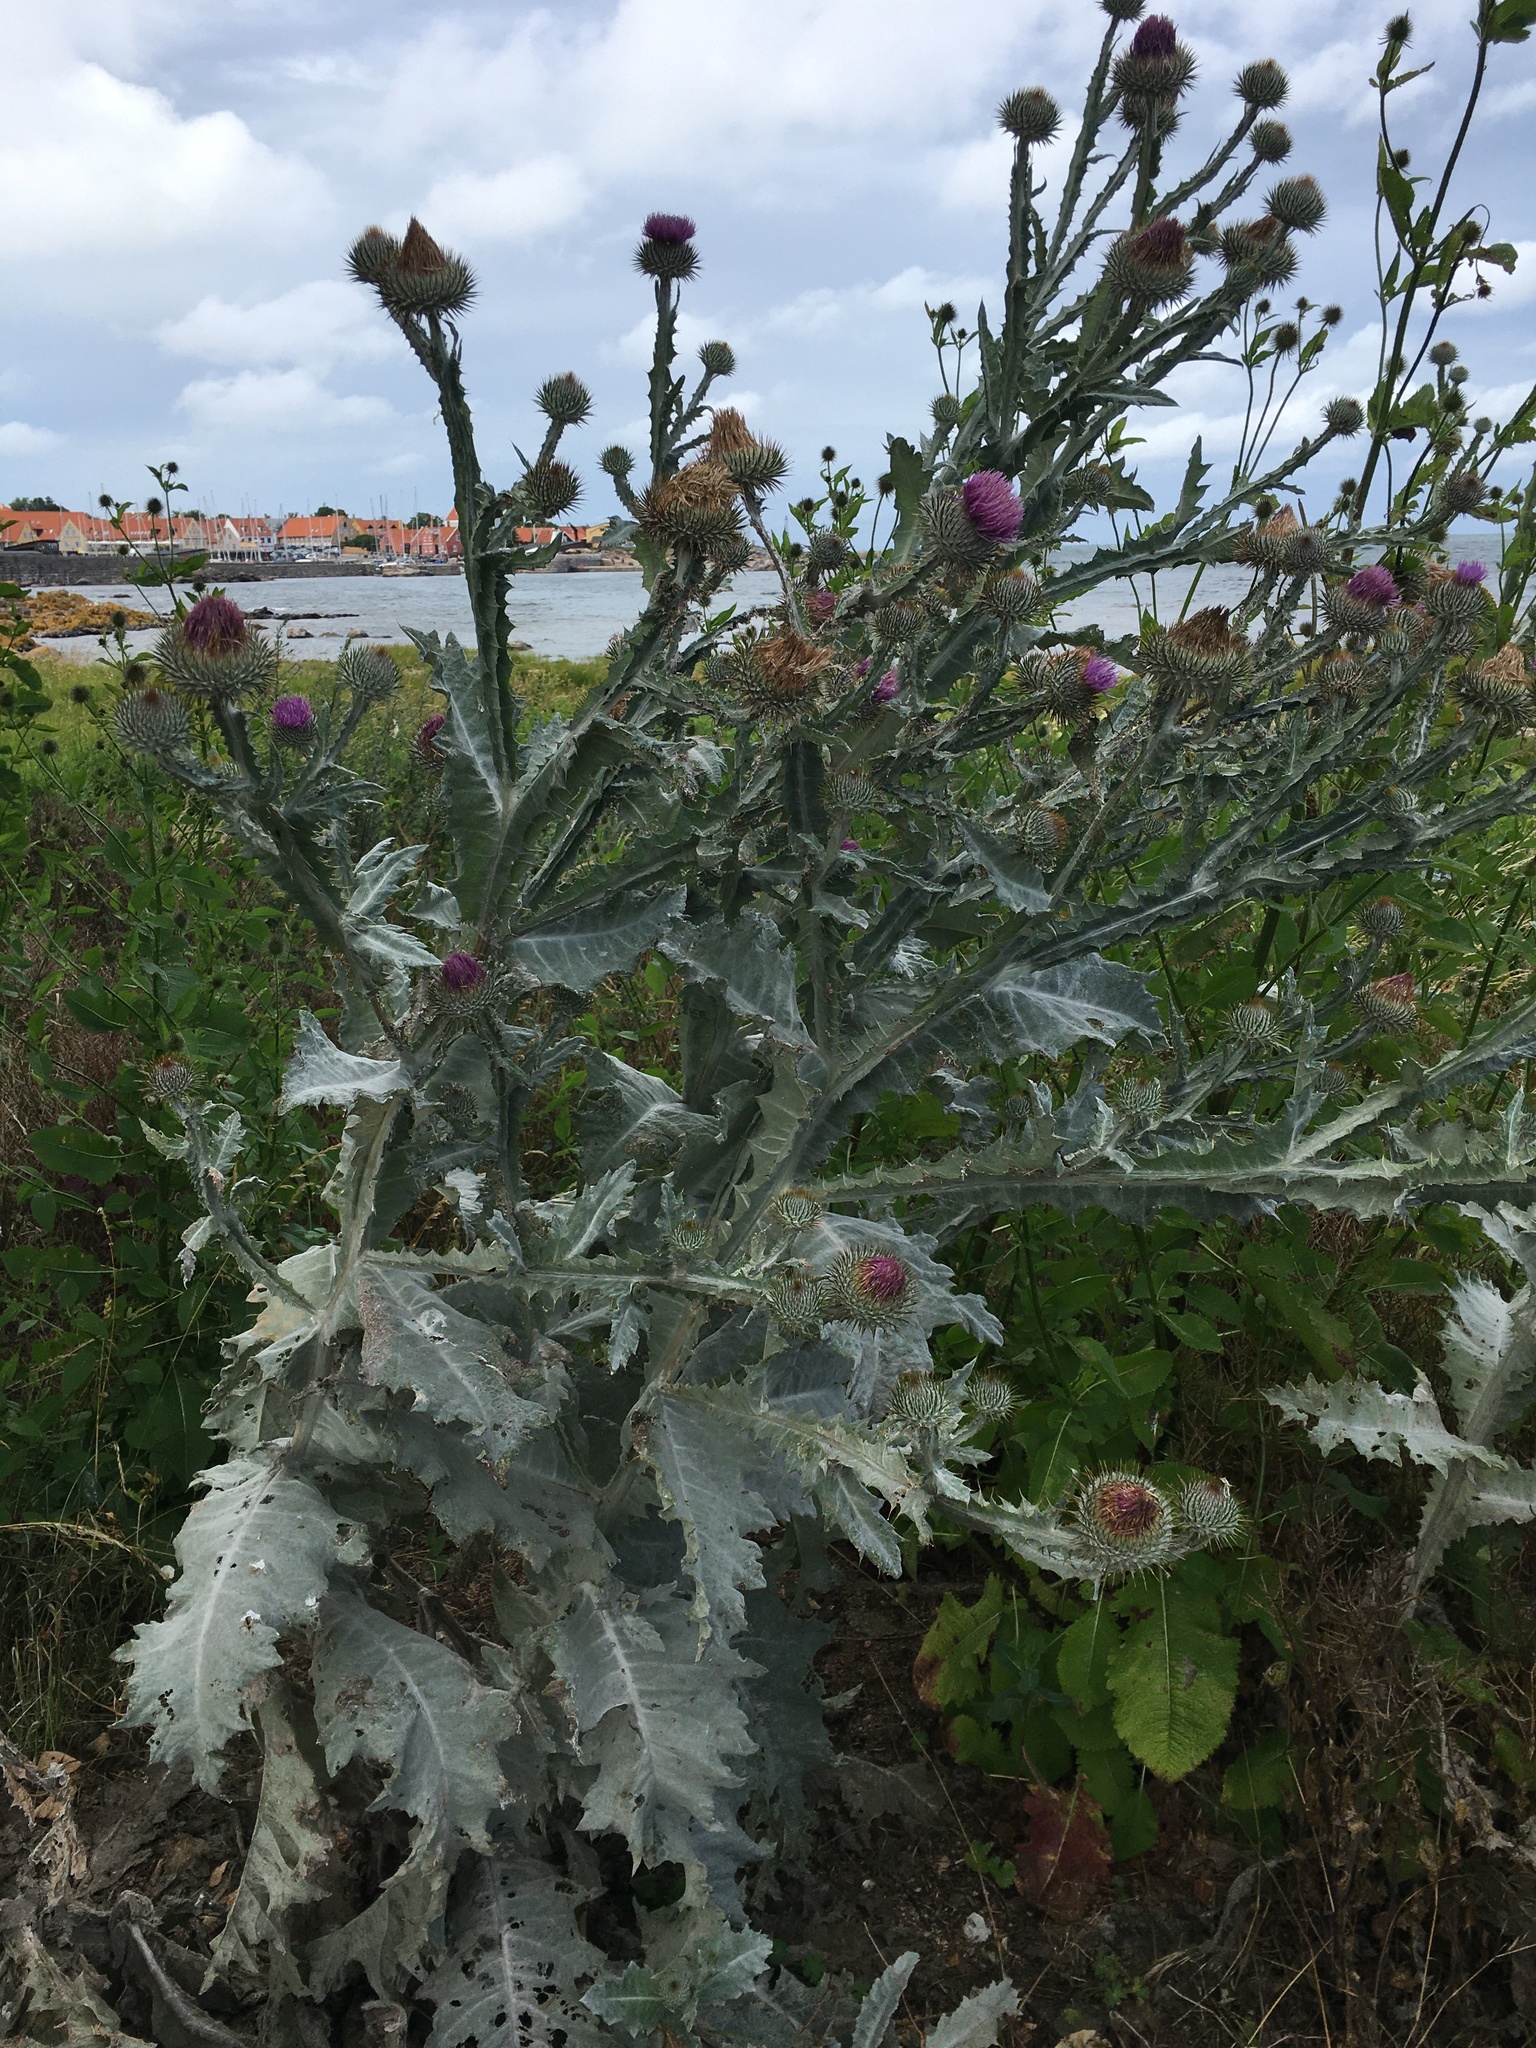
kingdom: Plantae
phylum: Tracheophyta
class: Magnoliopsida
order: Asterales
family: Asteraceae
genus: Onopordum
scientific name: Onopordum acanthium
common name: Scotch thistle
